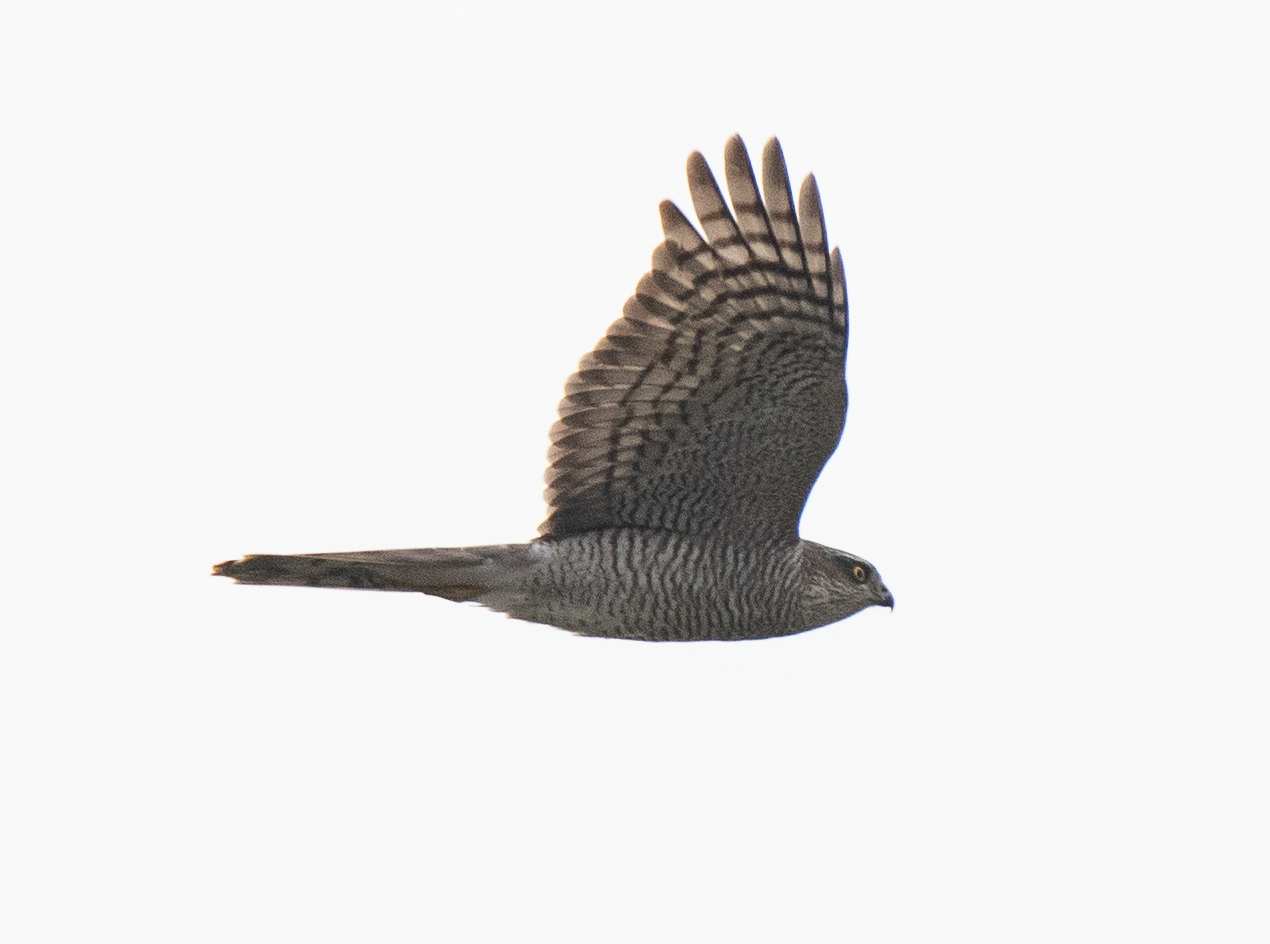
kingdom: Animalia
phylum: Chordata
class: Aves
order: Accipitriformes
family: Accipitridae
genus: Accipiter
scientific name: Accipiter nisus
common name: Eurasian sparrowhawk
